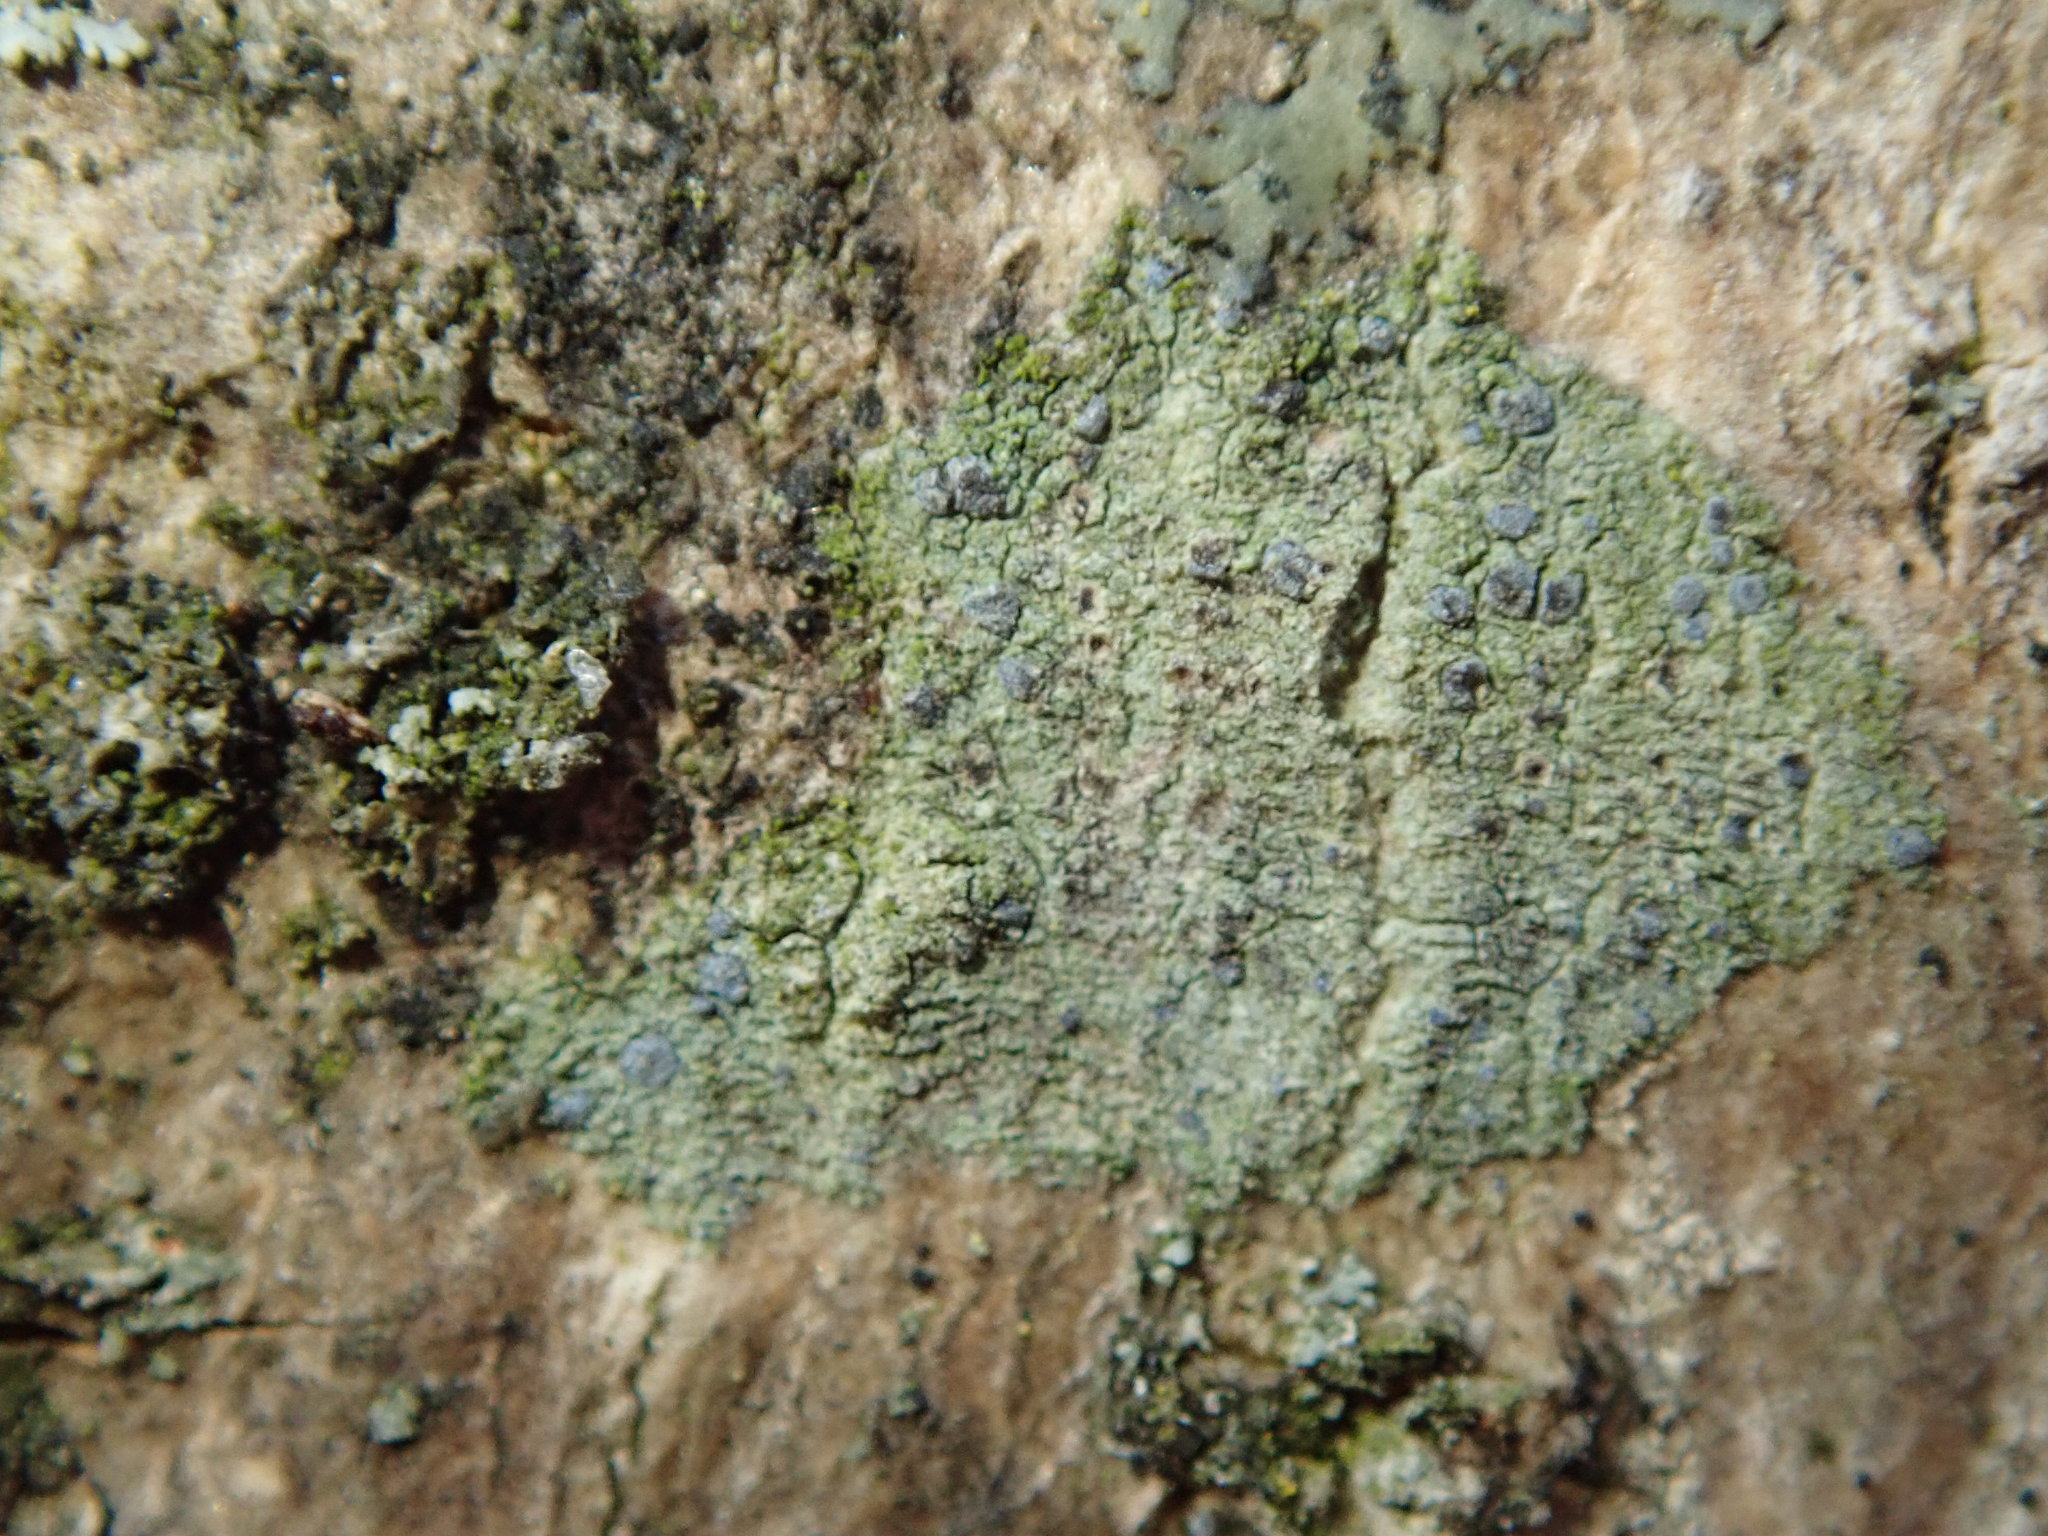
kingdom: Fungi
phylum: Ascomycota
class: Arthoniomycetes
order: Arthoniales
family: Chrysotrichaceae
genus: Chrysothrix
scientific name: Chrysothrix caesia
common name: Frosted comma lichen
